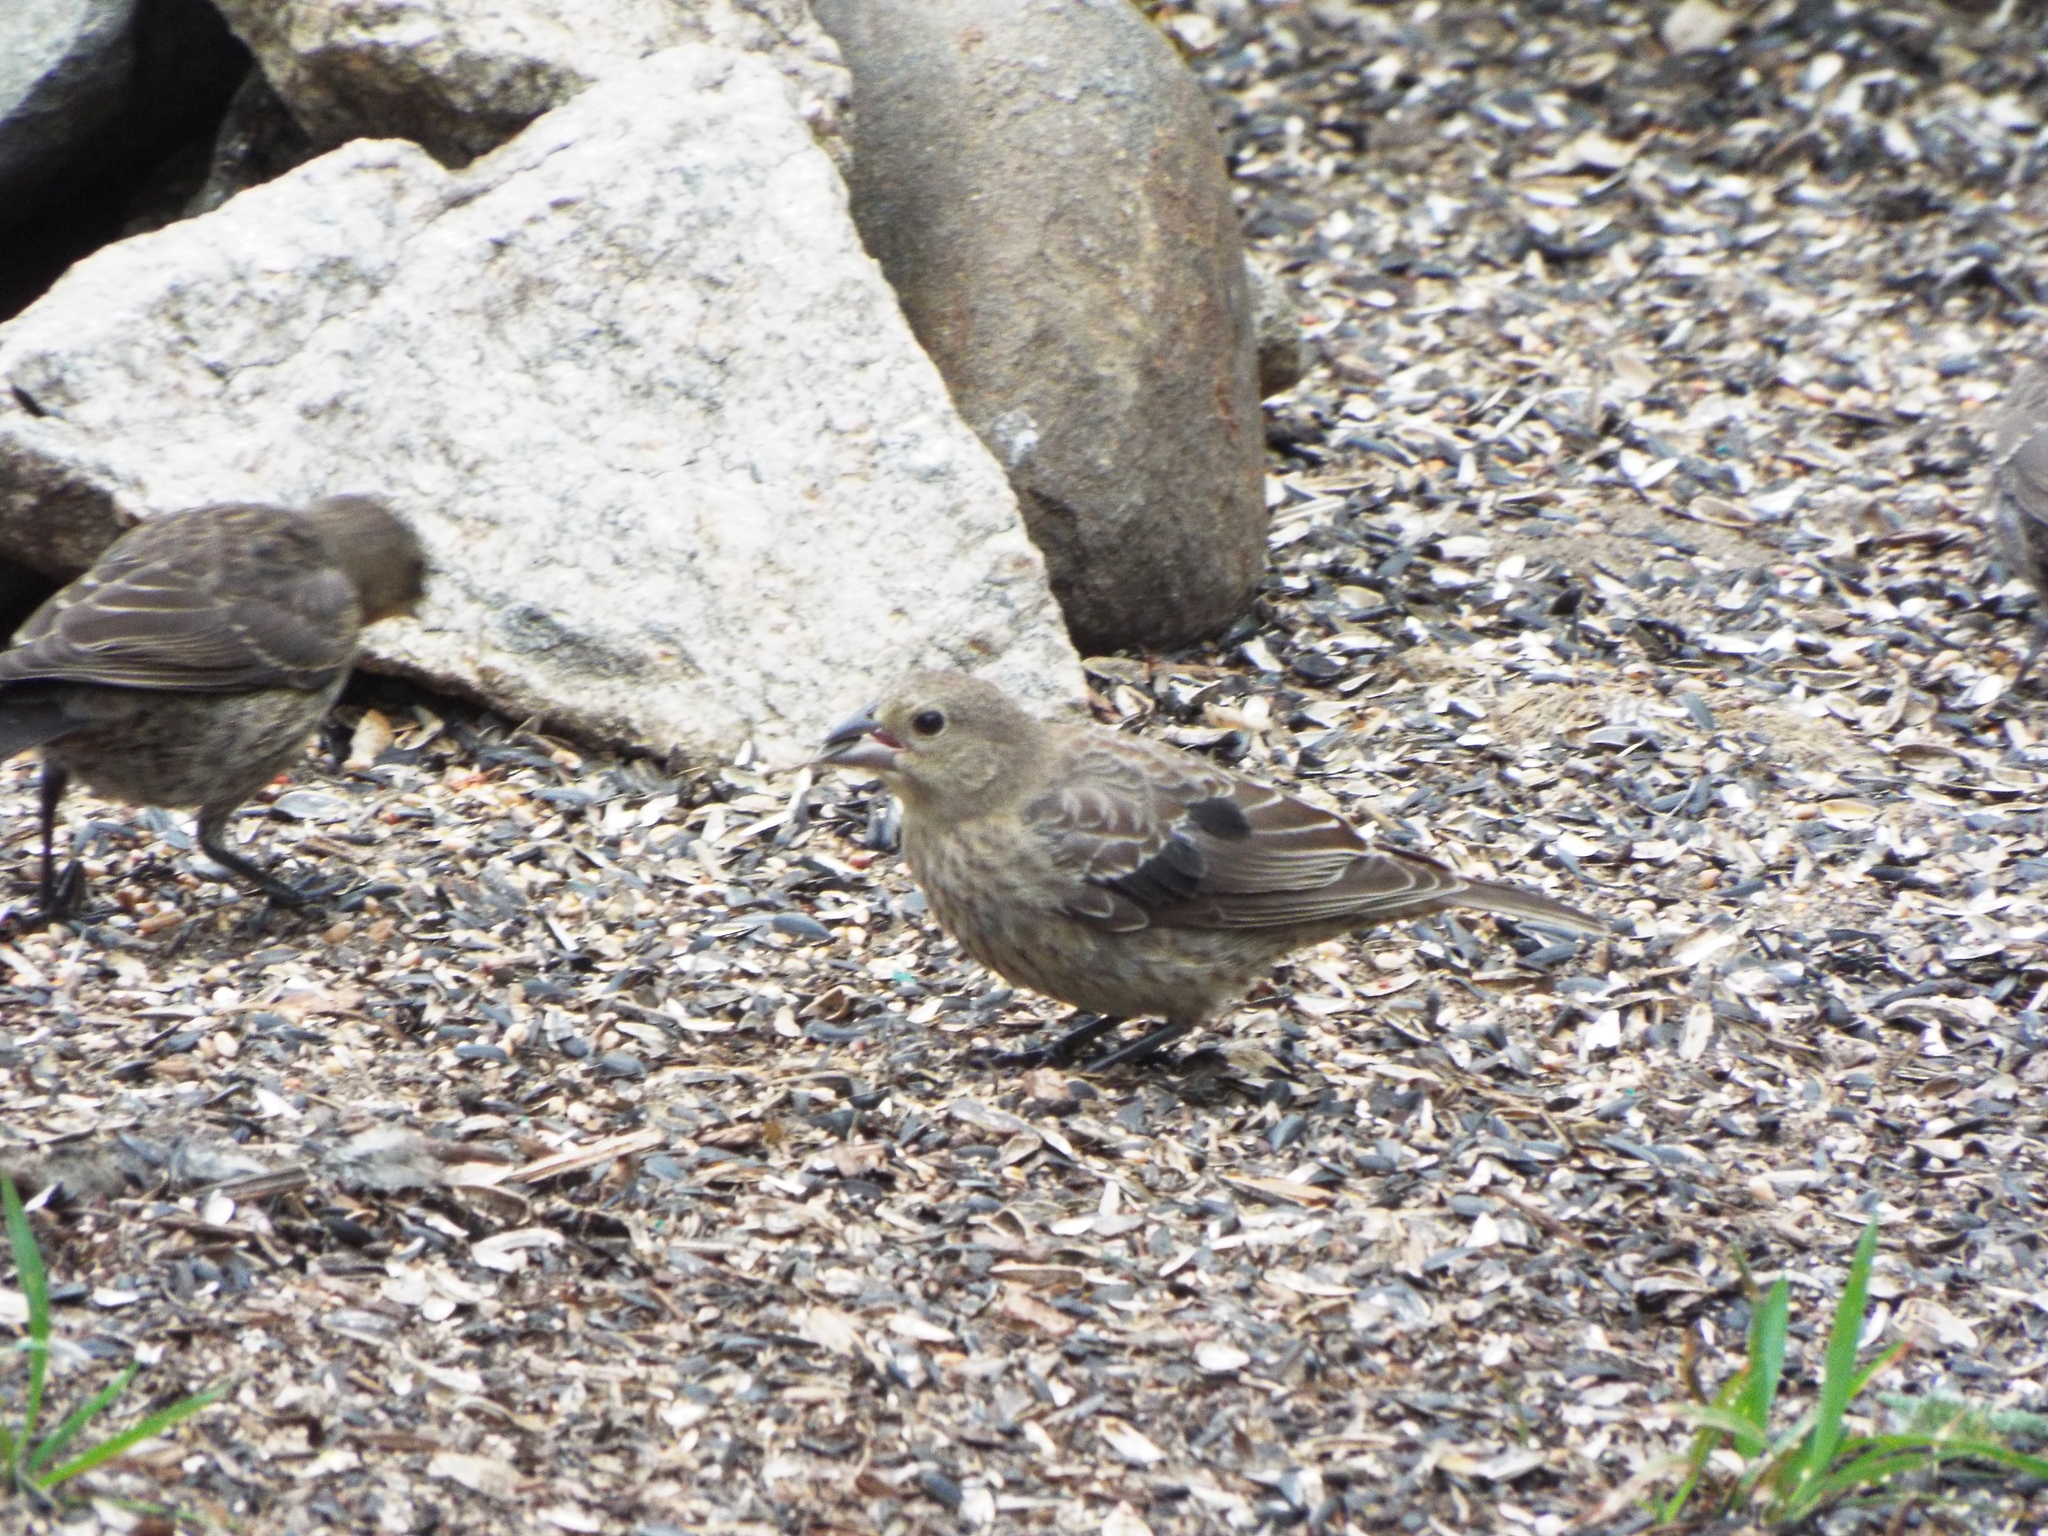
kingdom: Animalia
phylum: Chordata
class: Aves
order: Passeriformes
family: Icteridae
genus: Molothrus
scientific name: Molothrus ater
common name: Brown-headed cowbird
